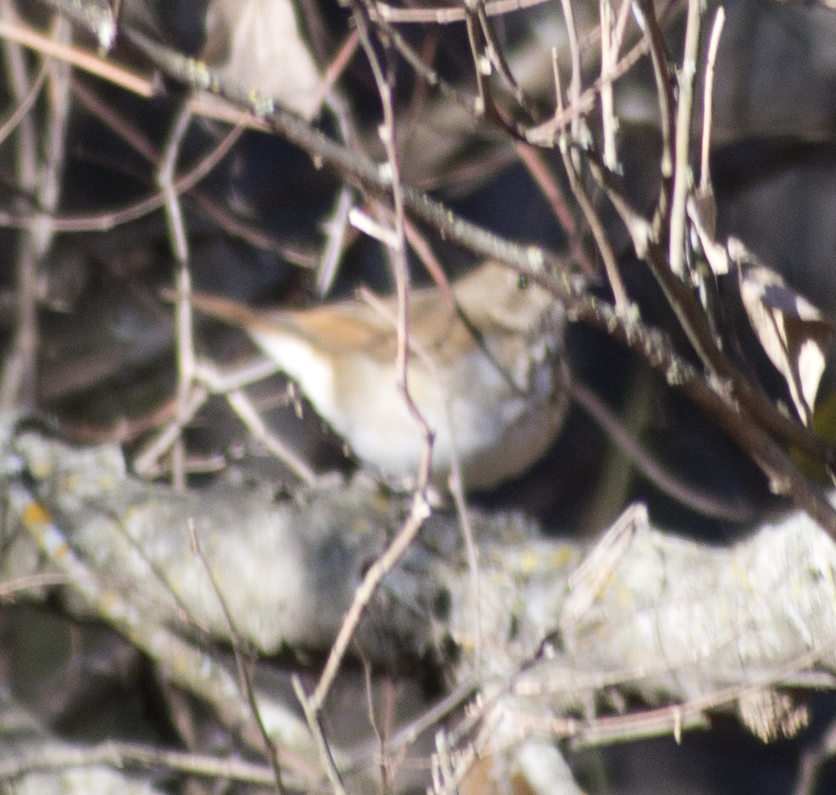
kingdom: Animalia
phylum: Chordata
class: Aves
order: Passeriformes
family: Turdidae
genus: Catharus
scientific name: Catharus guttatus
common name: Hermit thrush
